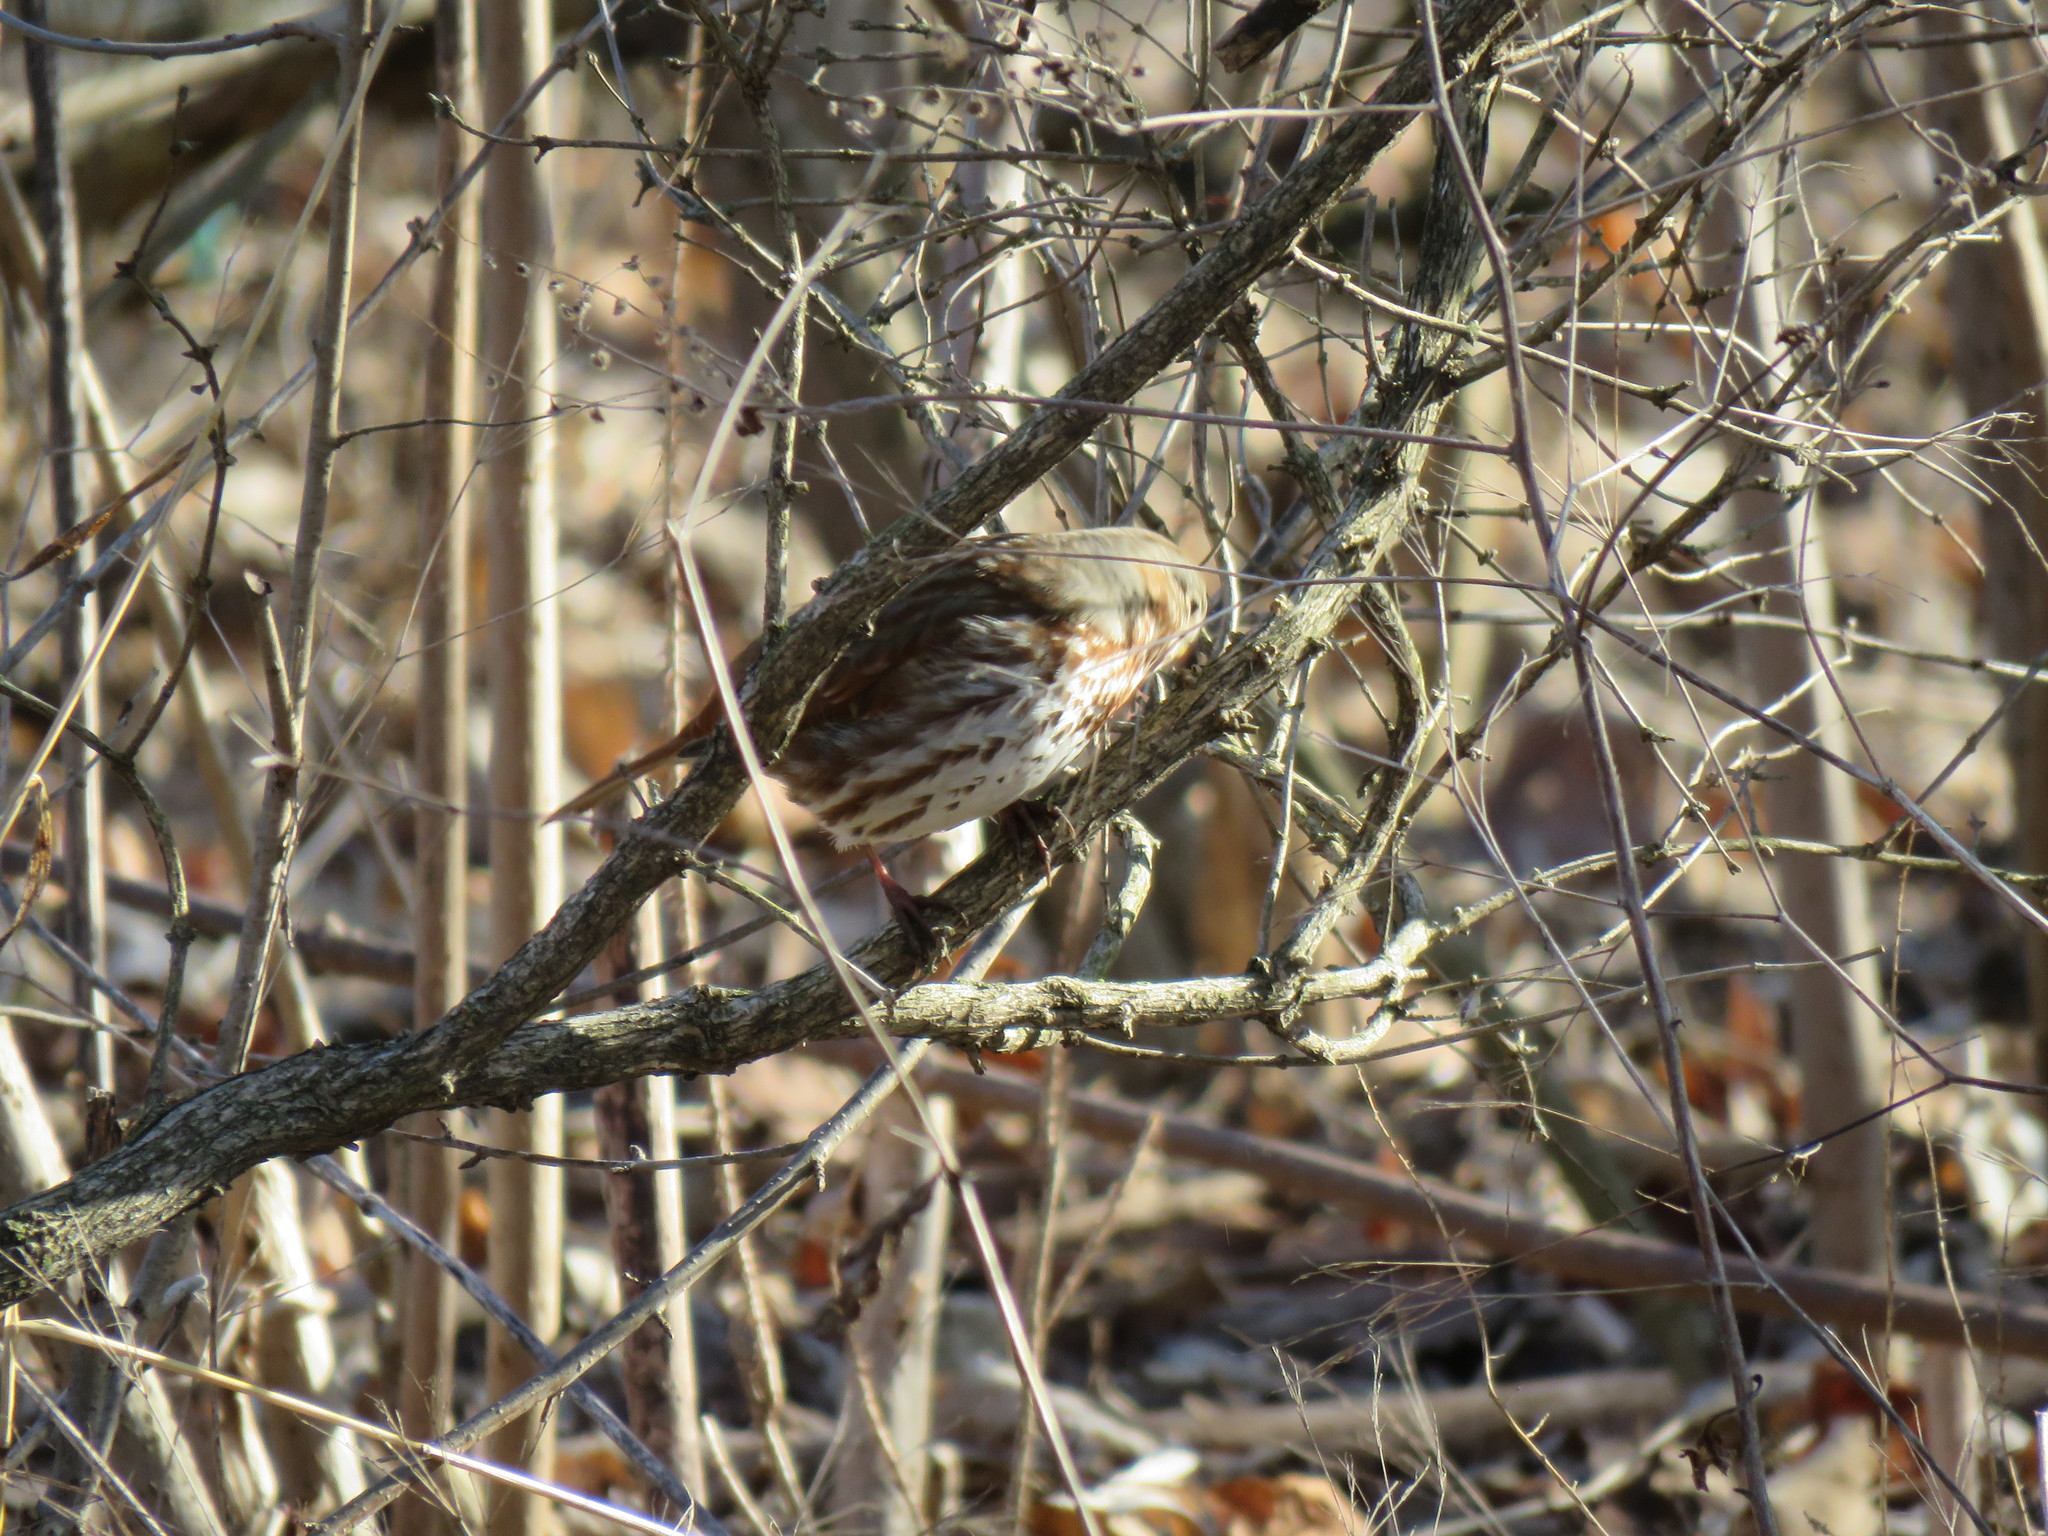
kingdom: Animalia
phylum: Chordata
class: Aves
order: Passeriformes
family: Passerellidae
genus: Passerella
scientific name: Passerella iliaca
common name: Fox sparrow
